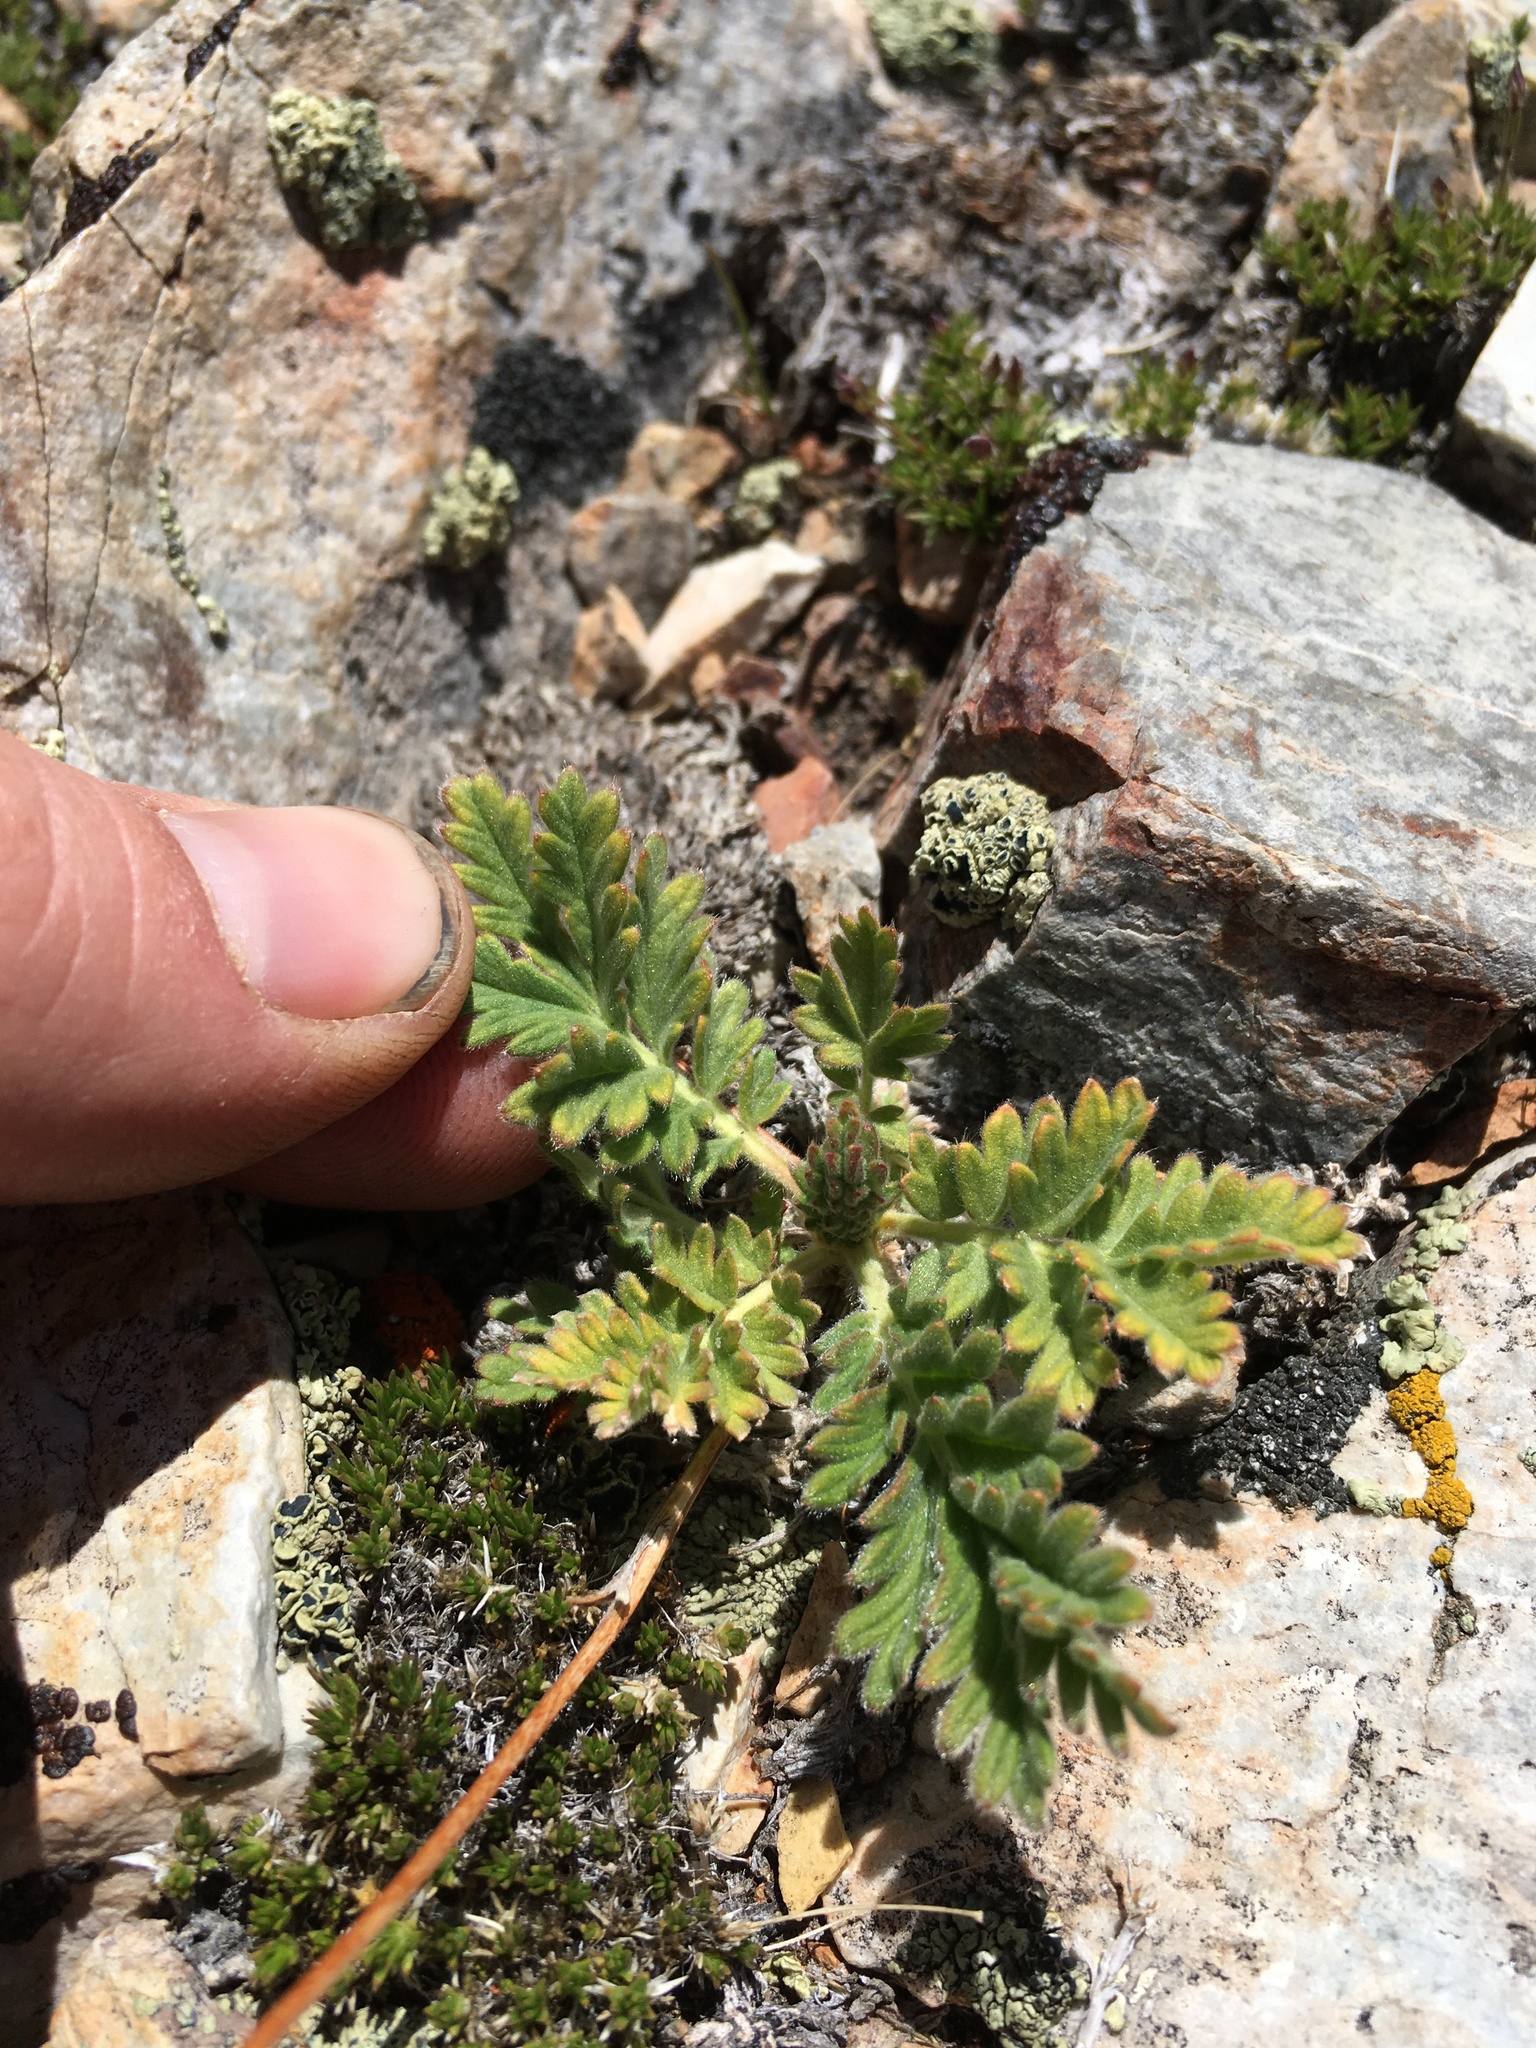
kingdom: Plantae
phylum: Tracheophyta
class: Magnoliopsida
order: Rosales
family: Rosaceae
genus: Potentilla
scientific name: Potentilla pensylvanica
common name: Pennsylvania cinquefoil
